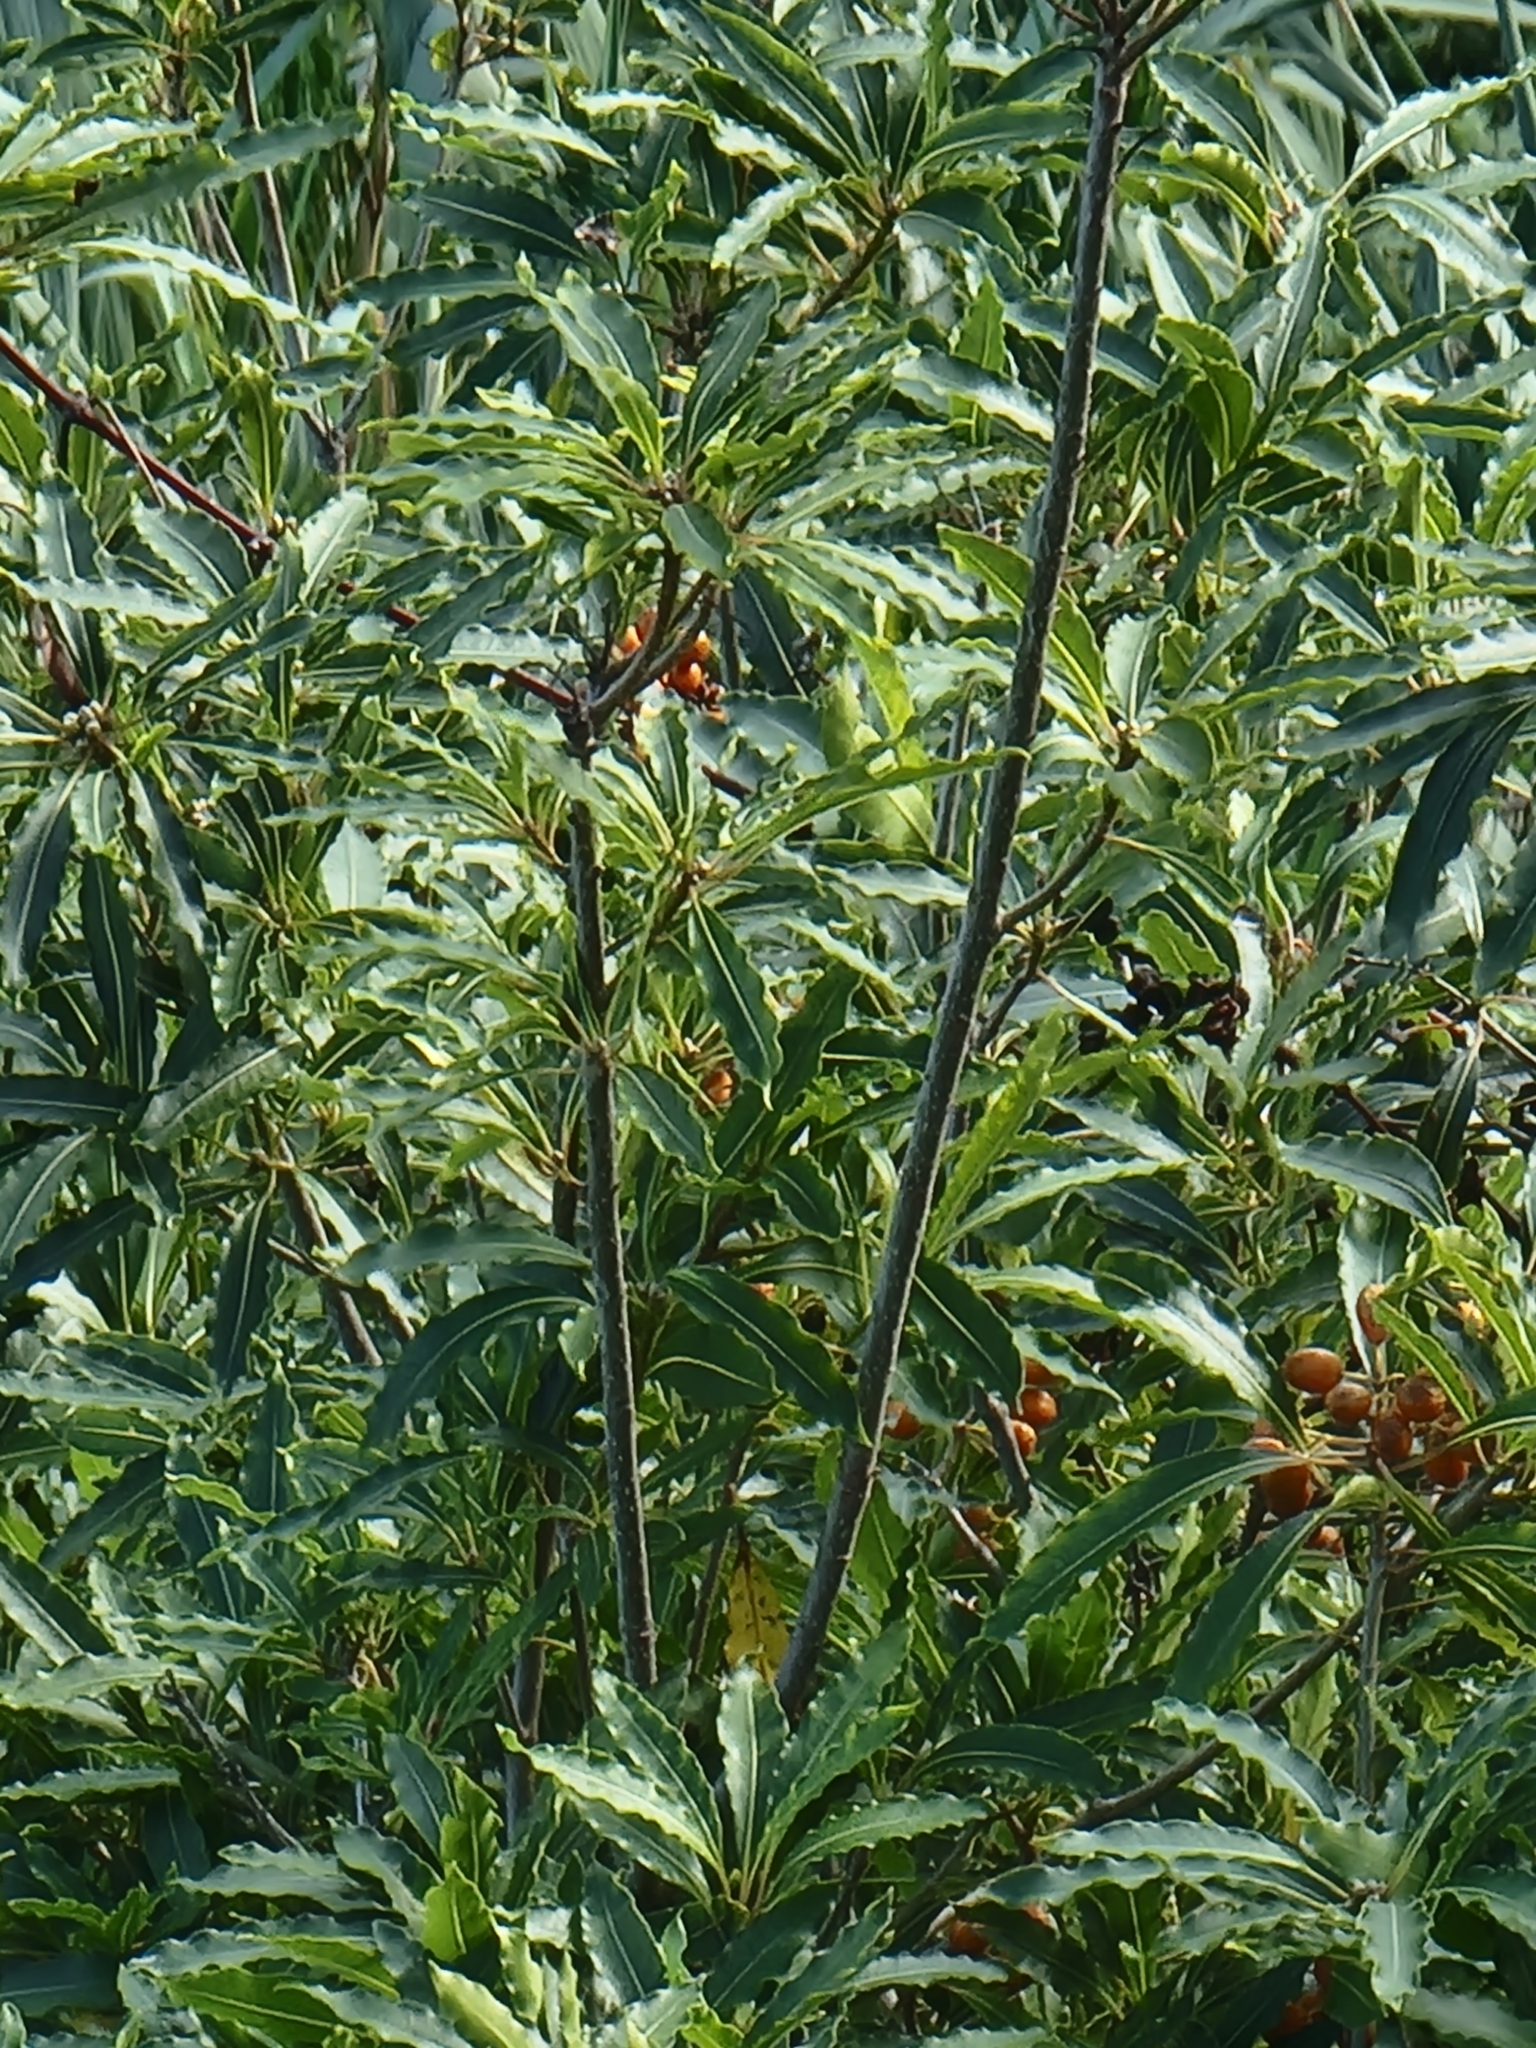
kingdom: Plantae
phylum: Tracheophyta
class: Magnoliopsida
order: Apiales
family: Pittosporaceae
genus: Pittosporum
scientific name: Pittosporum undulatum
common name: Australian cheesewood
